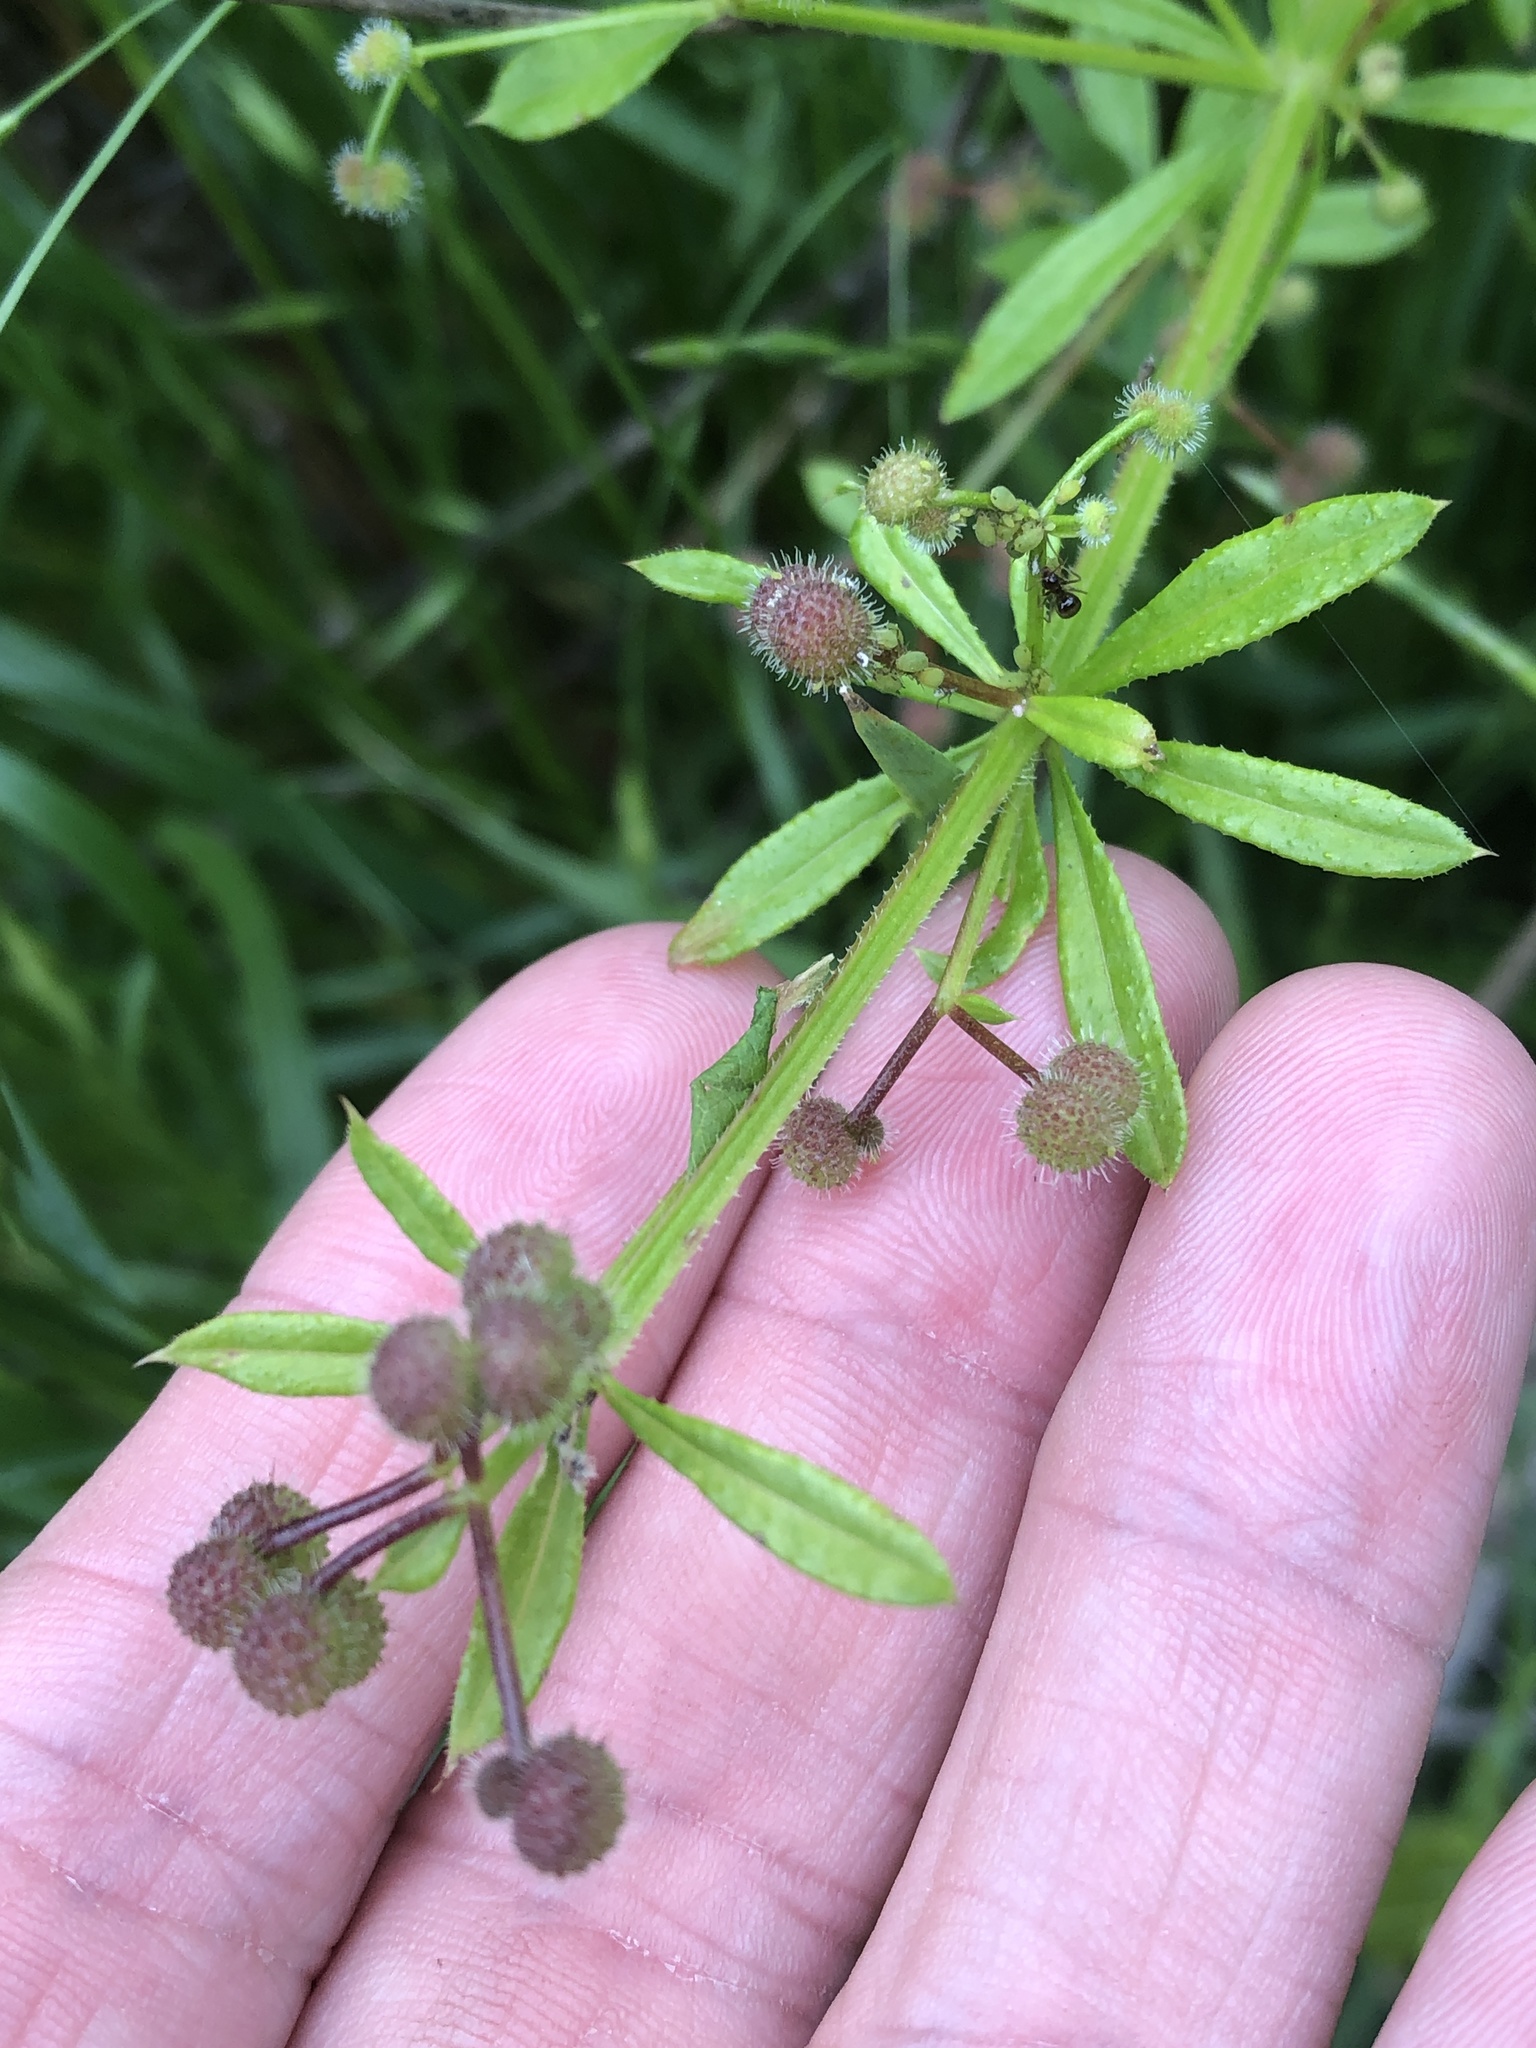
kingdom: Plantae
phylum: Tracheophyta
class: Magnoliopsida
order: Gentianales
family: Rubiaceae
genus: Galium
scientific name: Galium aparine
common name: Cleavers
